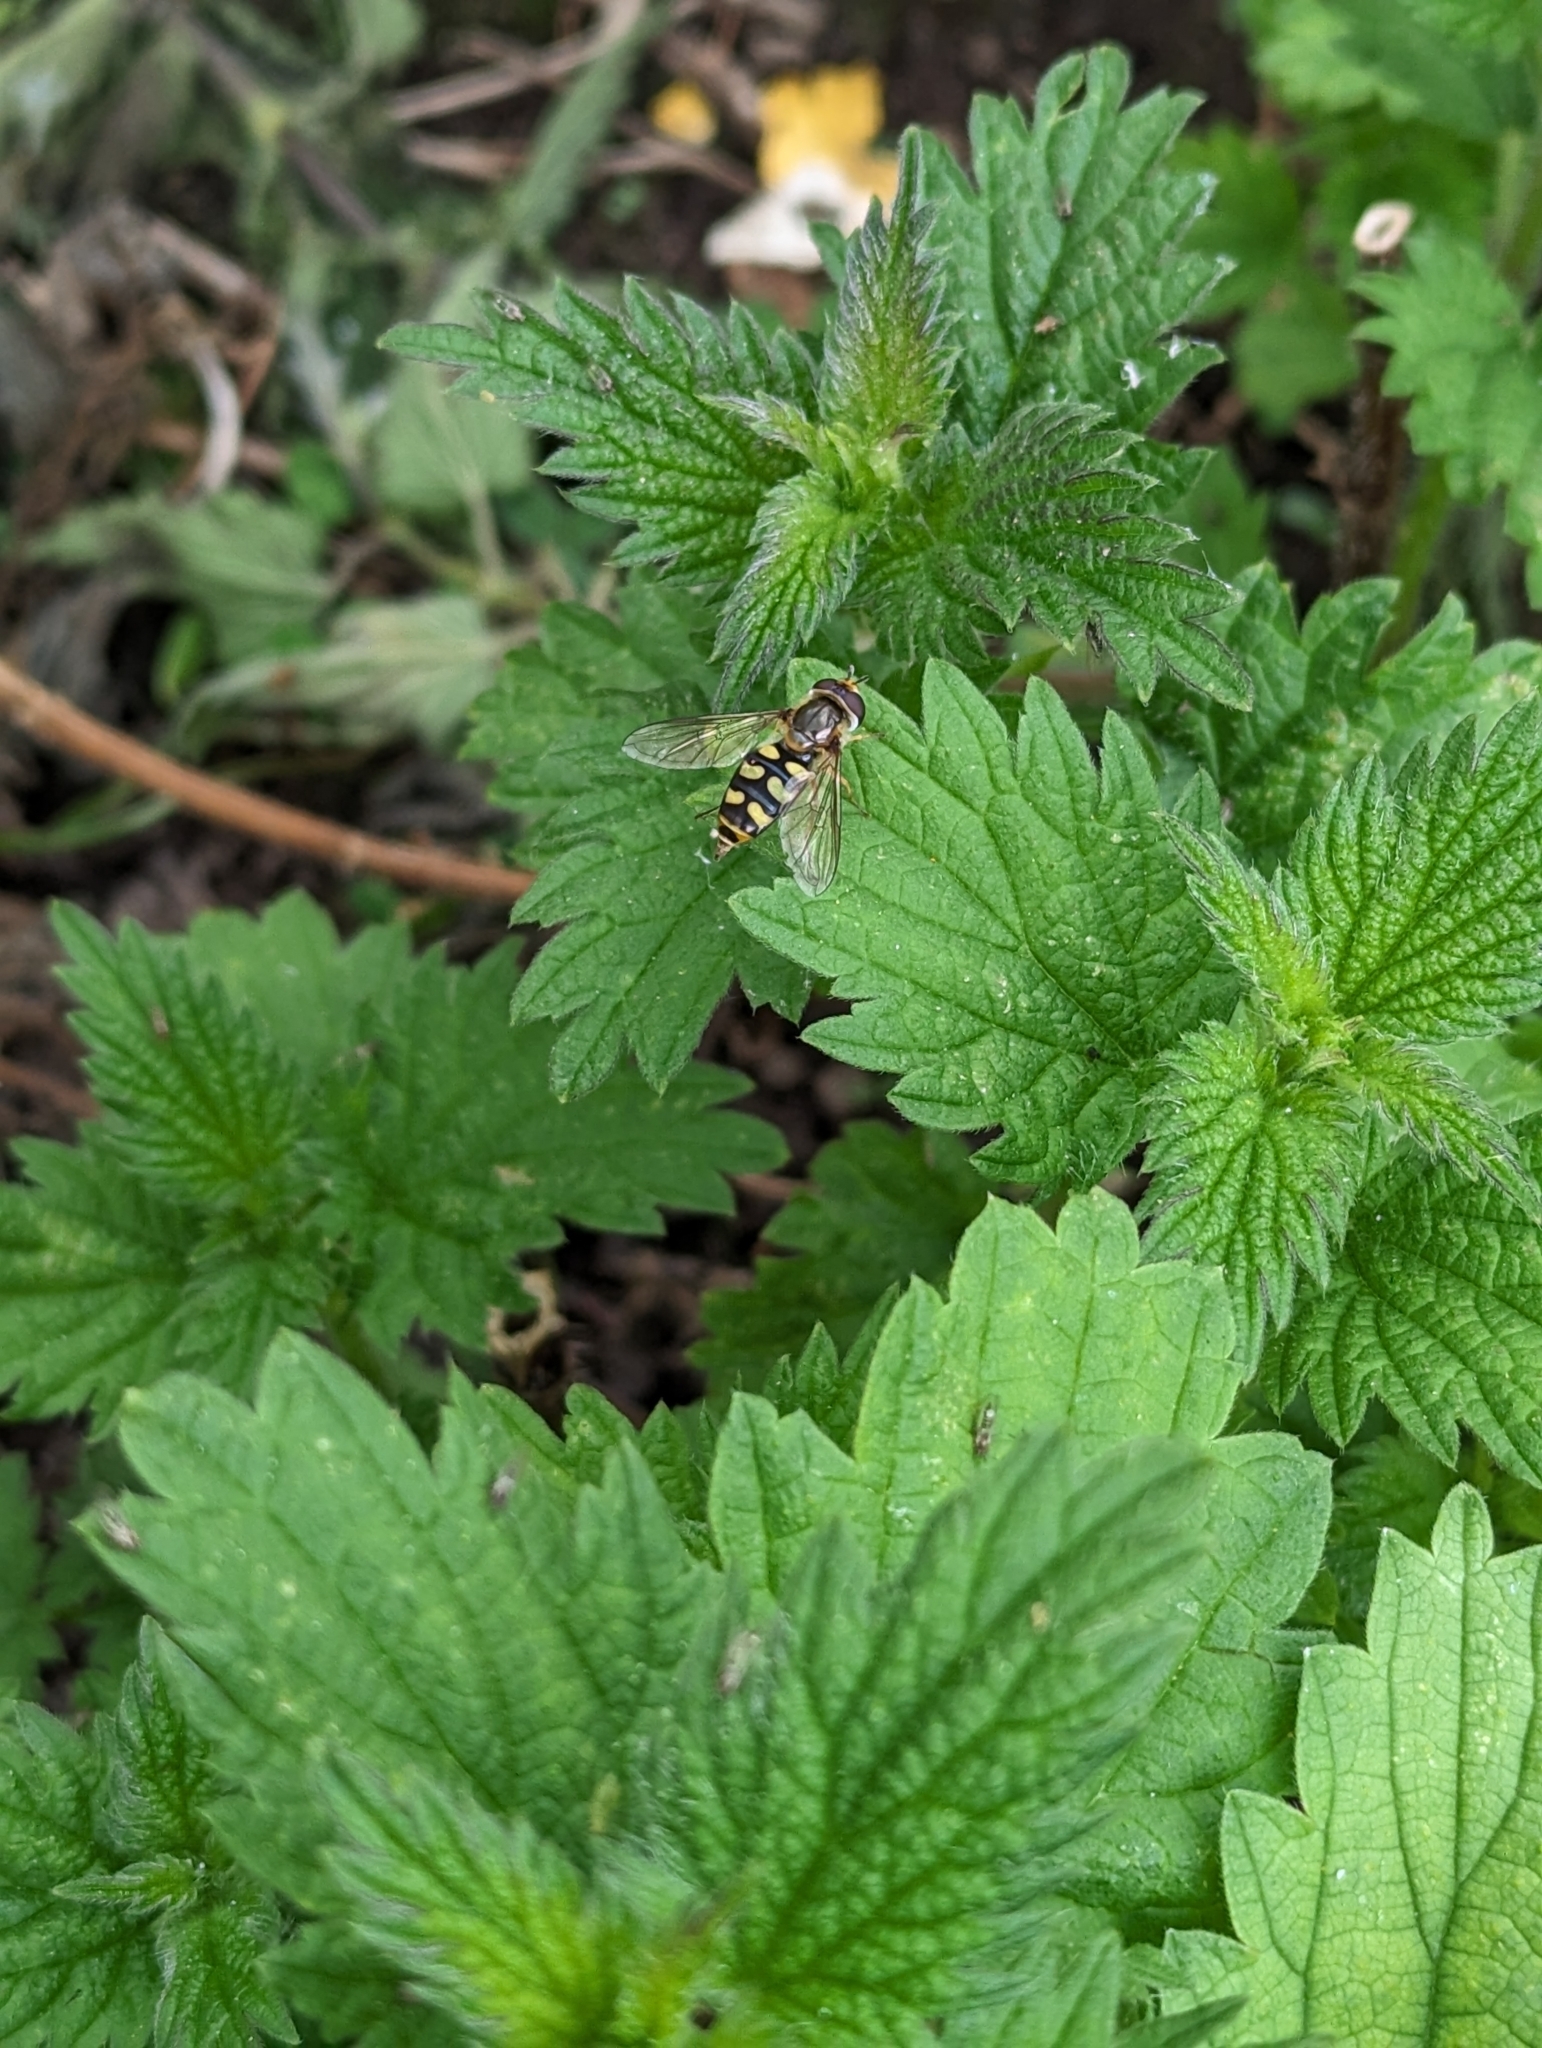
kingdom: Animalia
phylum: Arthropoda
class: Insecta
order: Diptera
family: Syrphidae
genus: Eupeodes
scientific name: Eupeodes luniger
